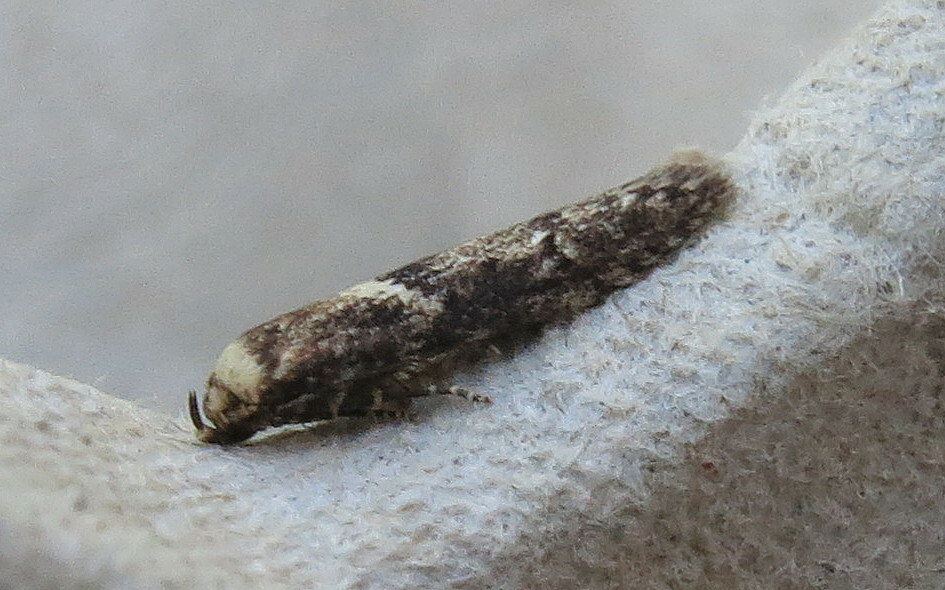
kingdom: Animalia
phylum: Arthropoda
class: Insecta
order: Lepidoptera
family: Blastobasidae
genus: Blastobasis
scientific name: Blastobasis adustella
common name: Dingy dowd
